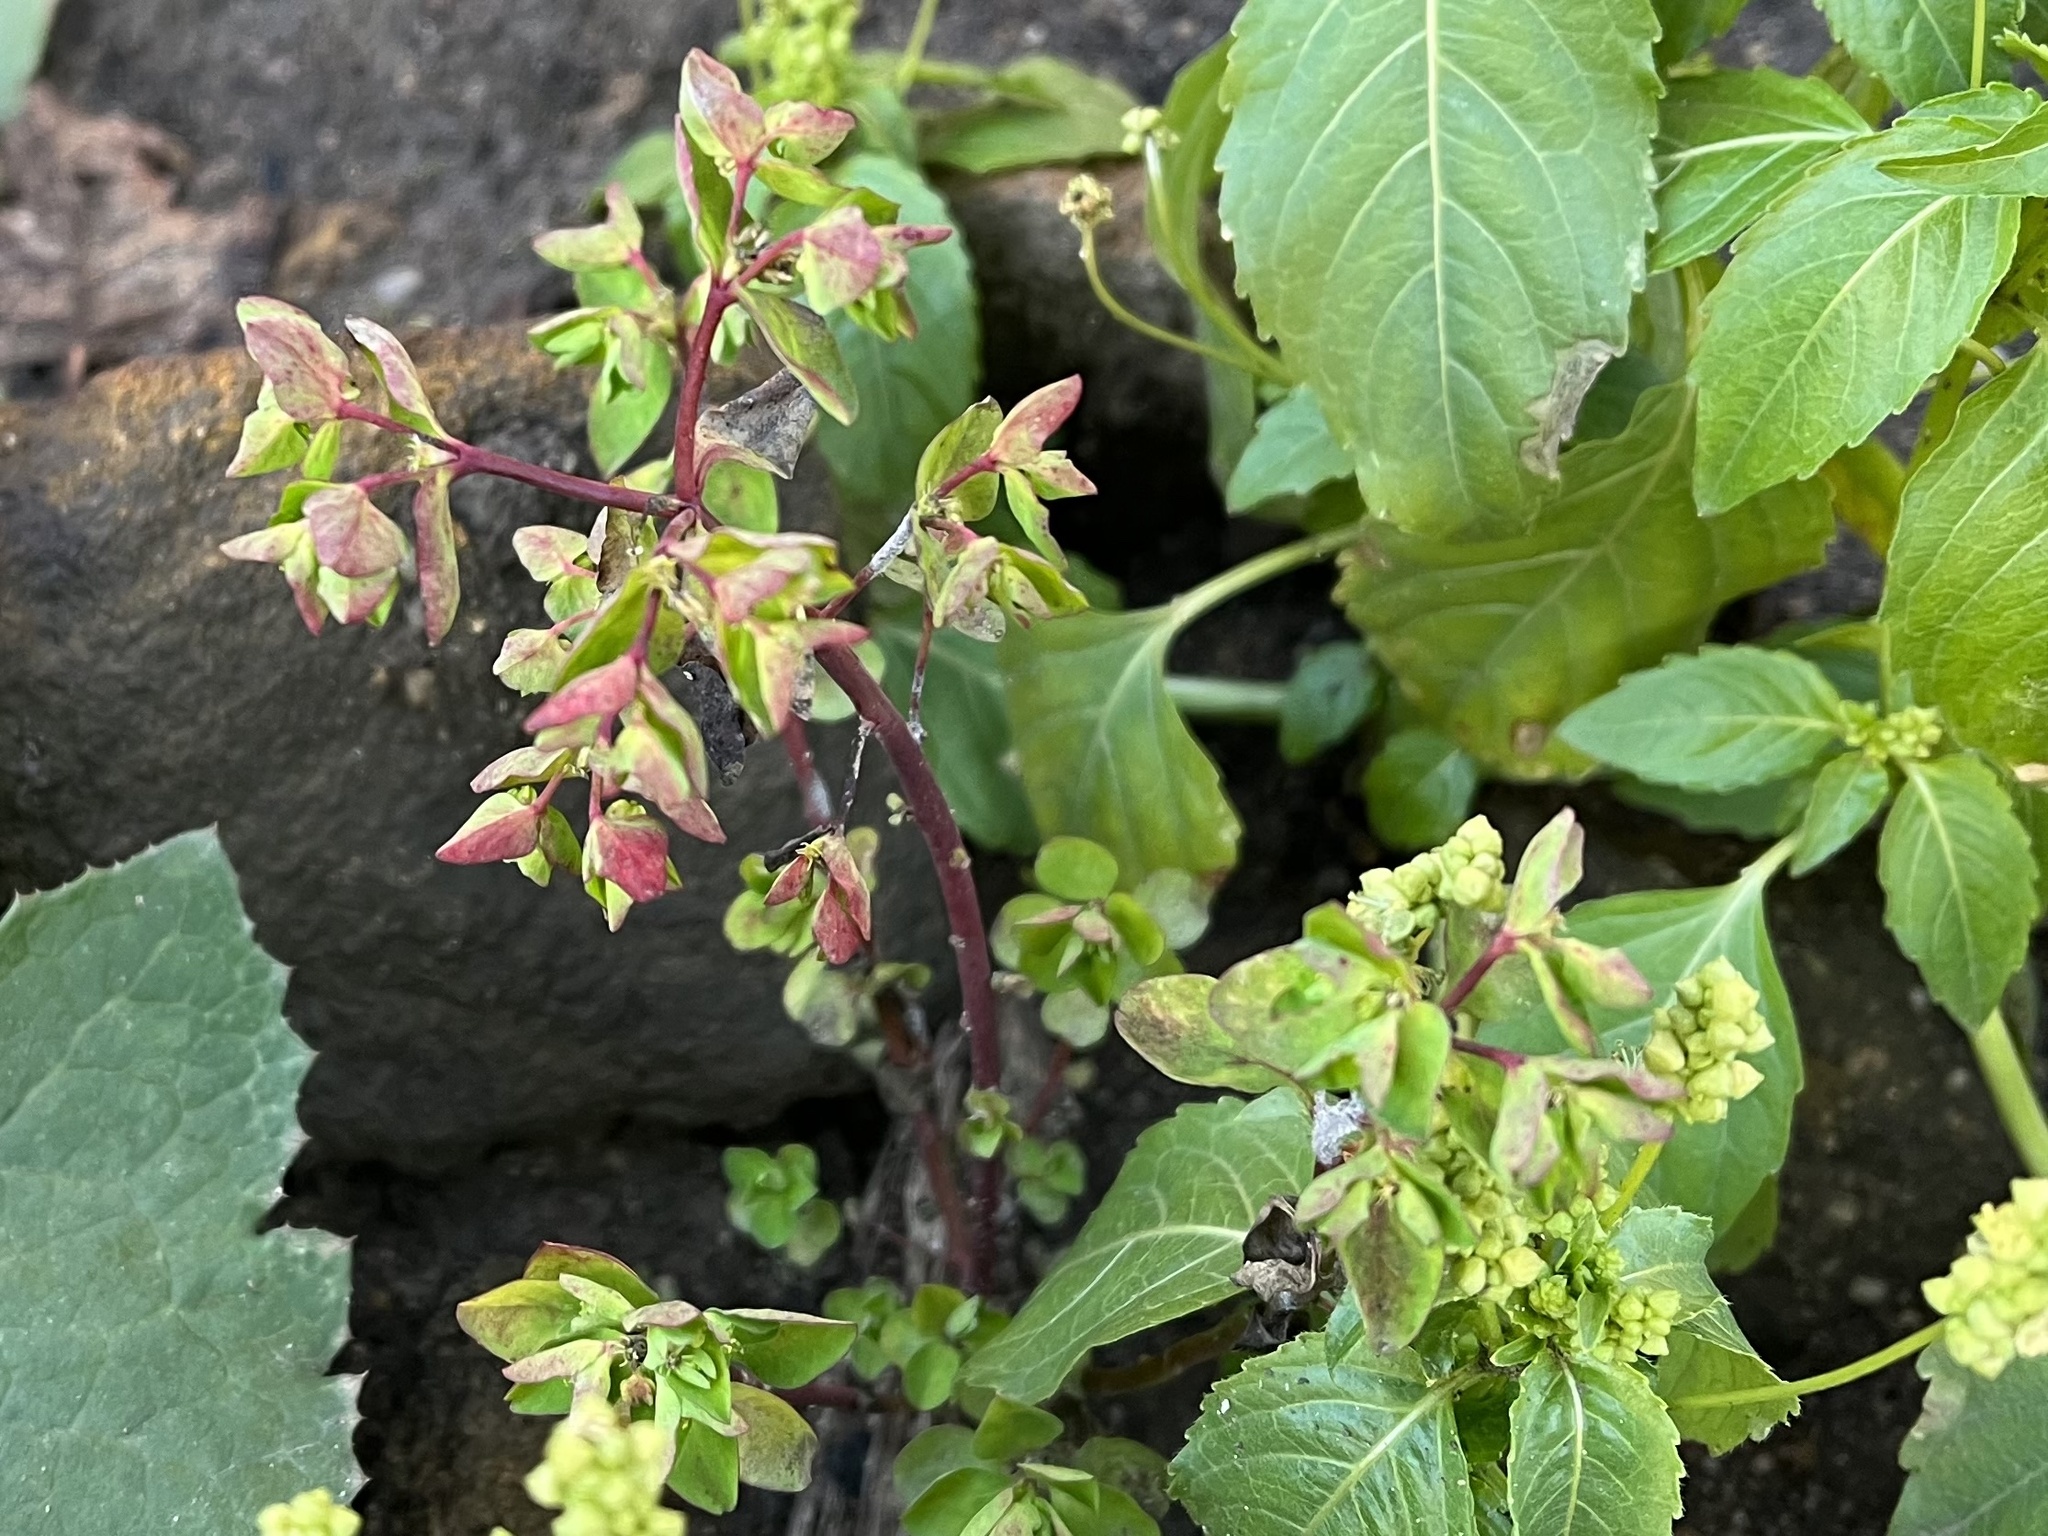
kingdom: Plantae
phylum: Tracheophyta
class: Magnoliopsida
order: Malpighiales
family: Euphorbiaceae
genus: Euphorbia
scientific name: Euphorbia peplus
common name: Petty spurge
